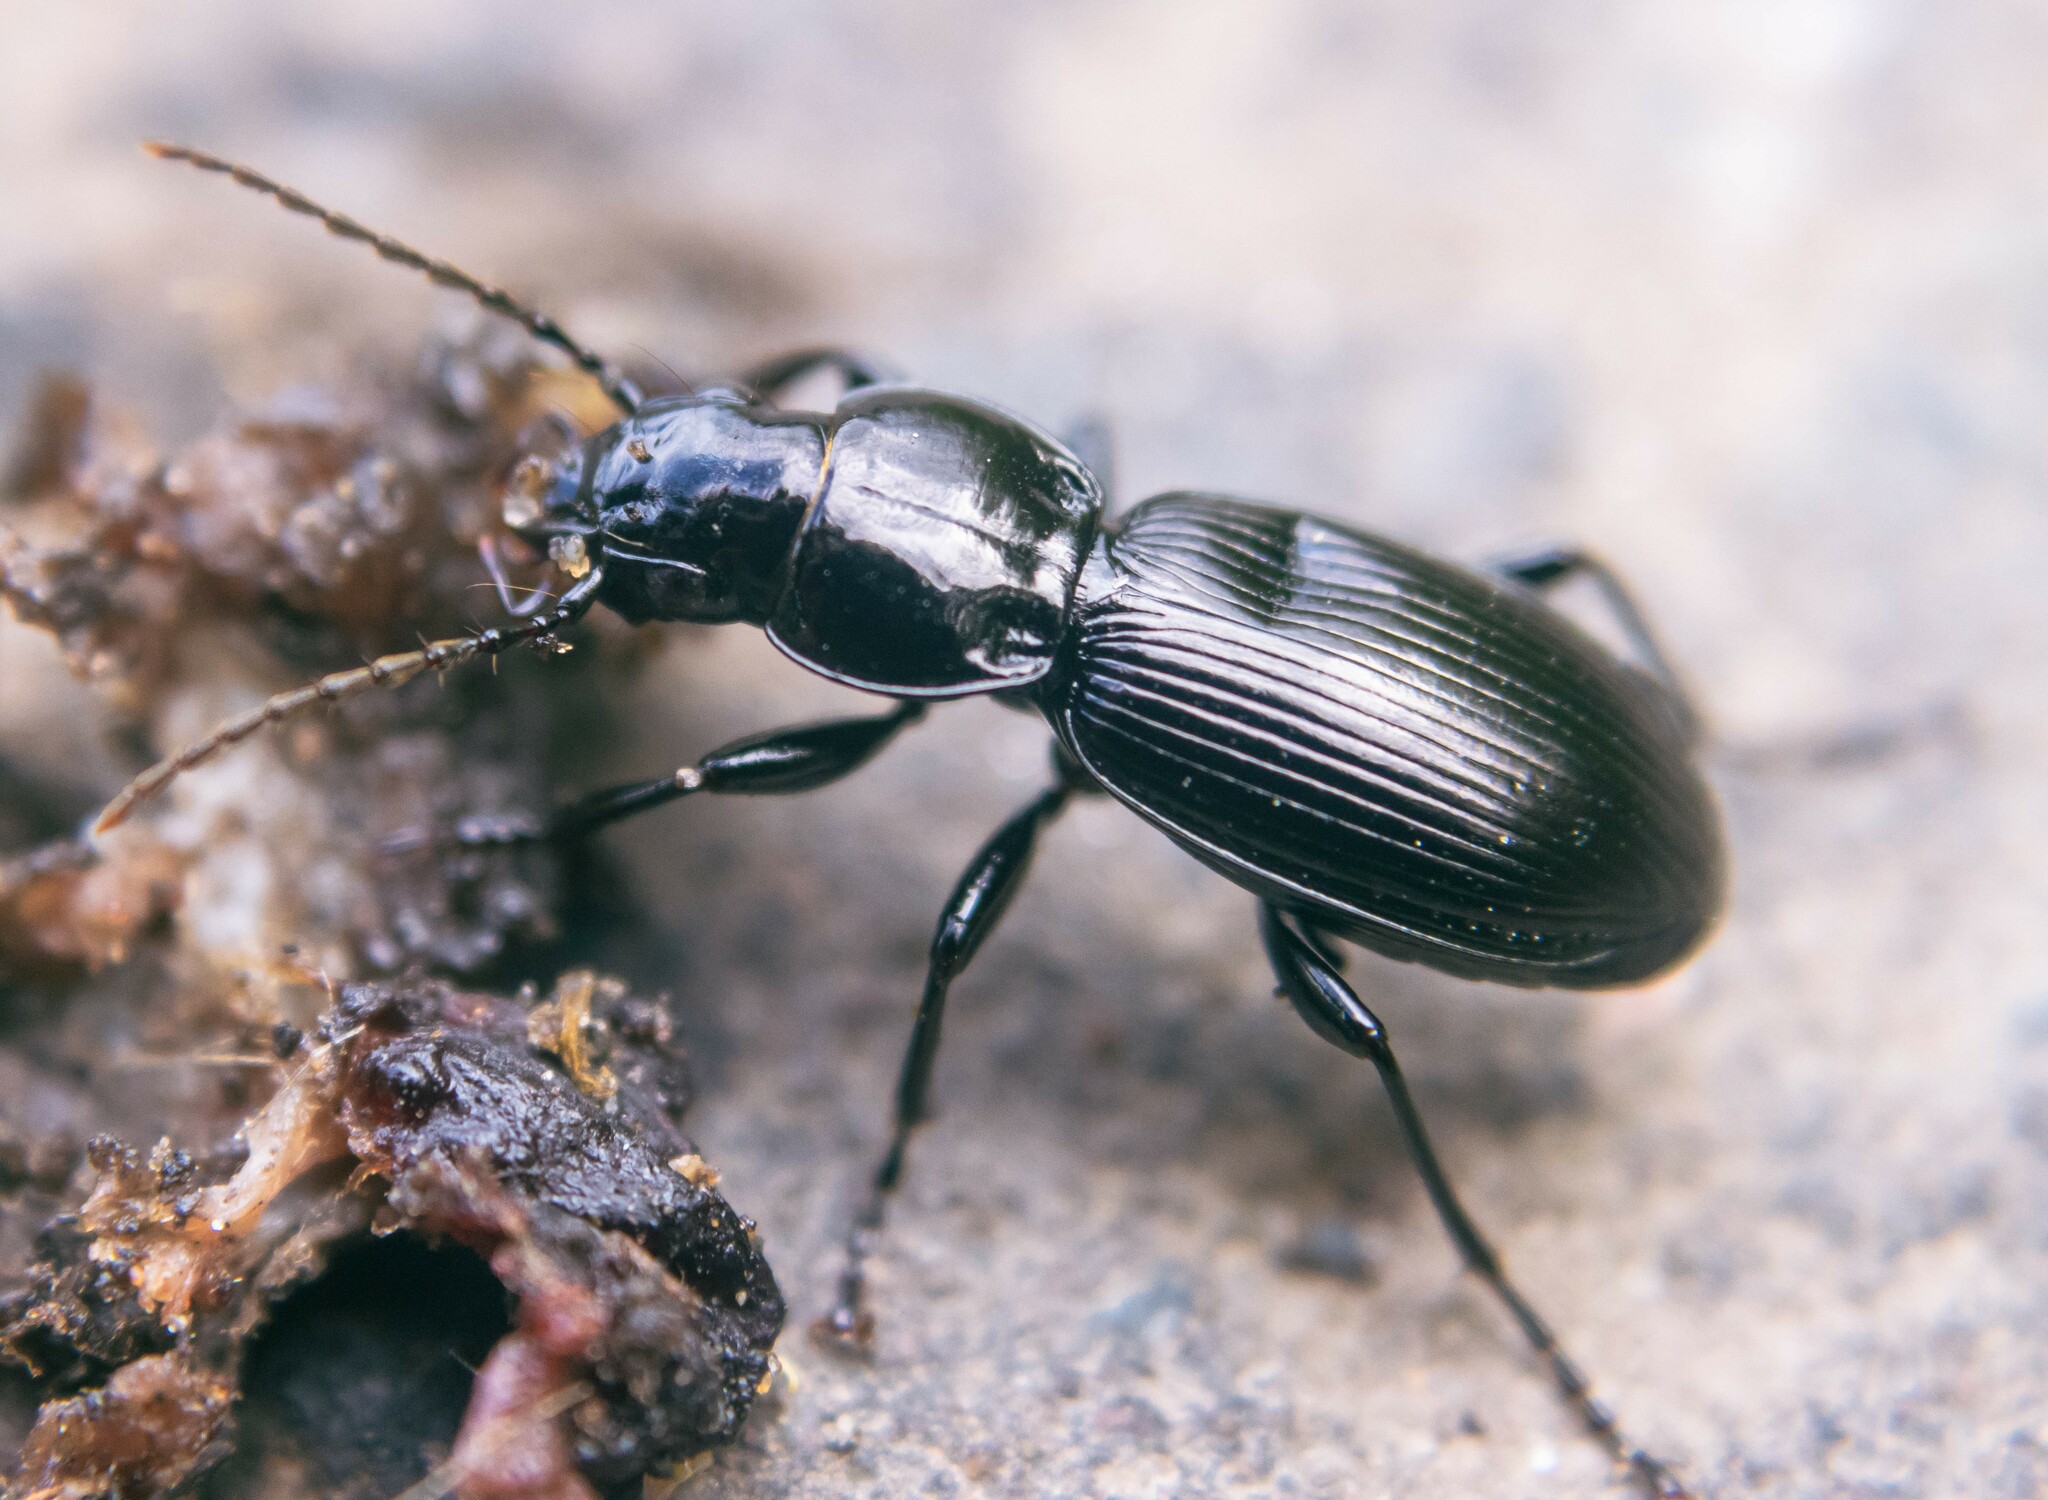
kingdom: Animalia
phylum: Arthropoda
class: Insecta
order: Coleoptera
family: Carabidae
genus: Pterostichus
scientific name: Pterostichus madidus
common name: Black clock
